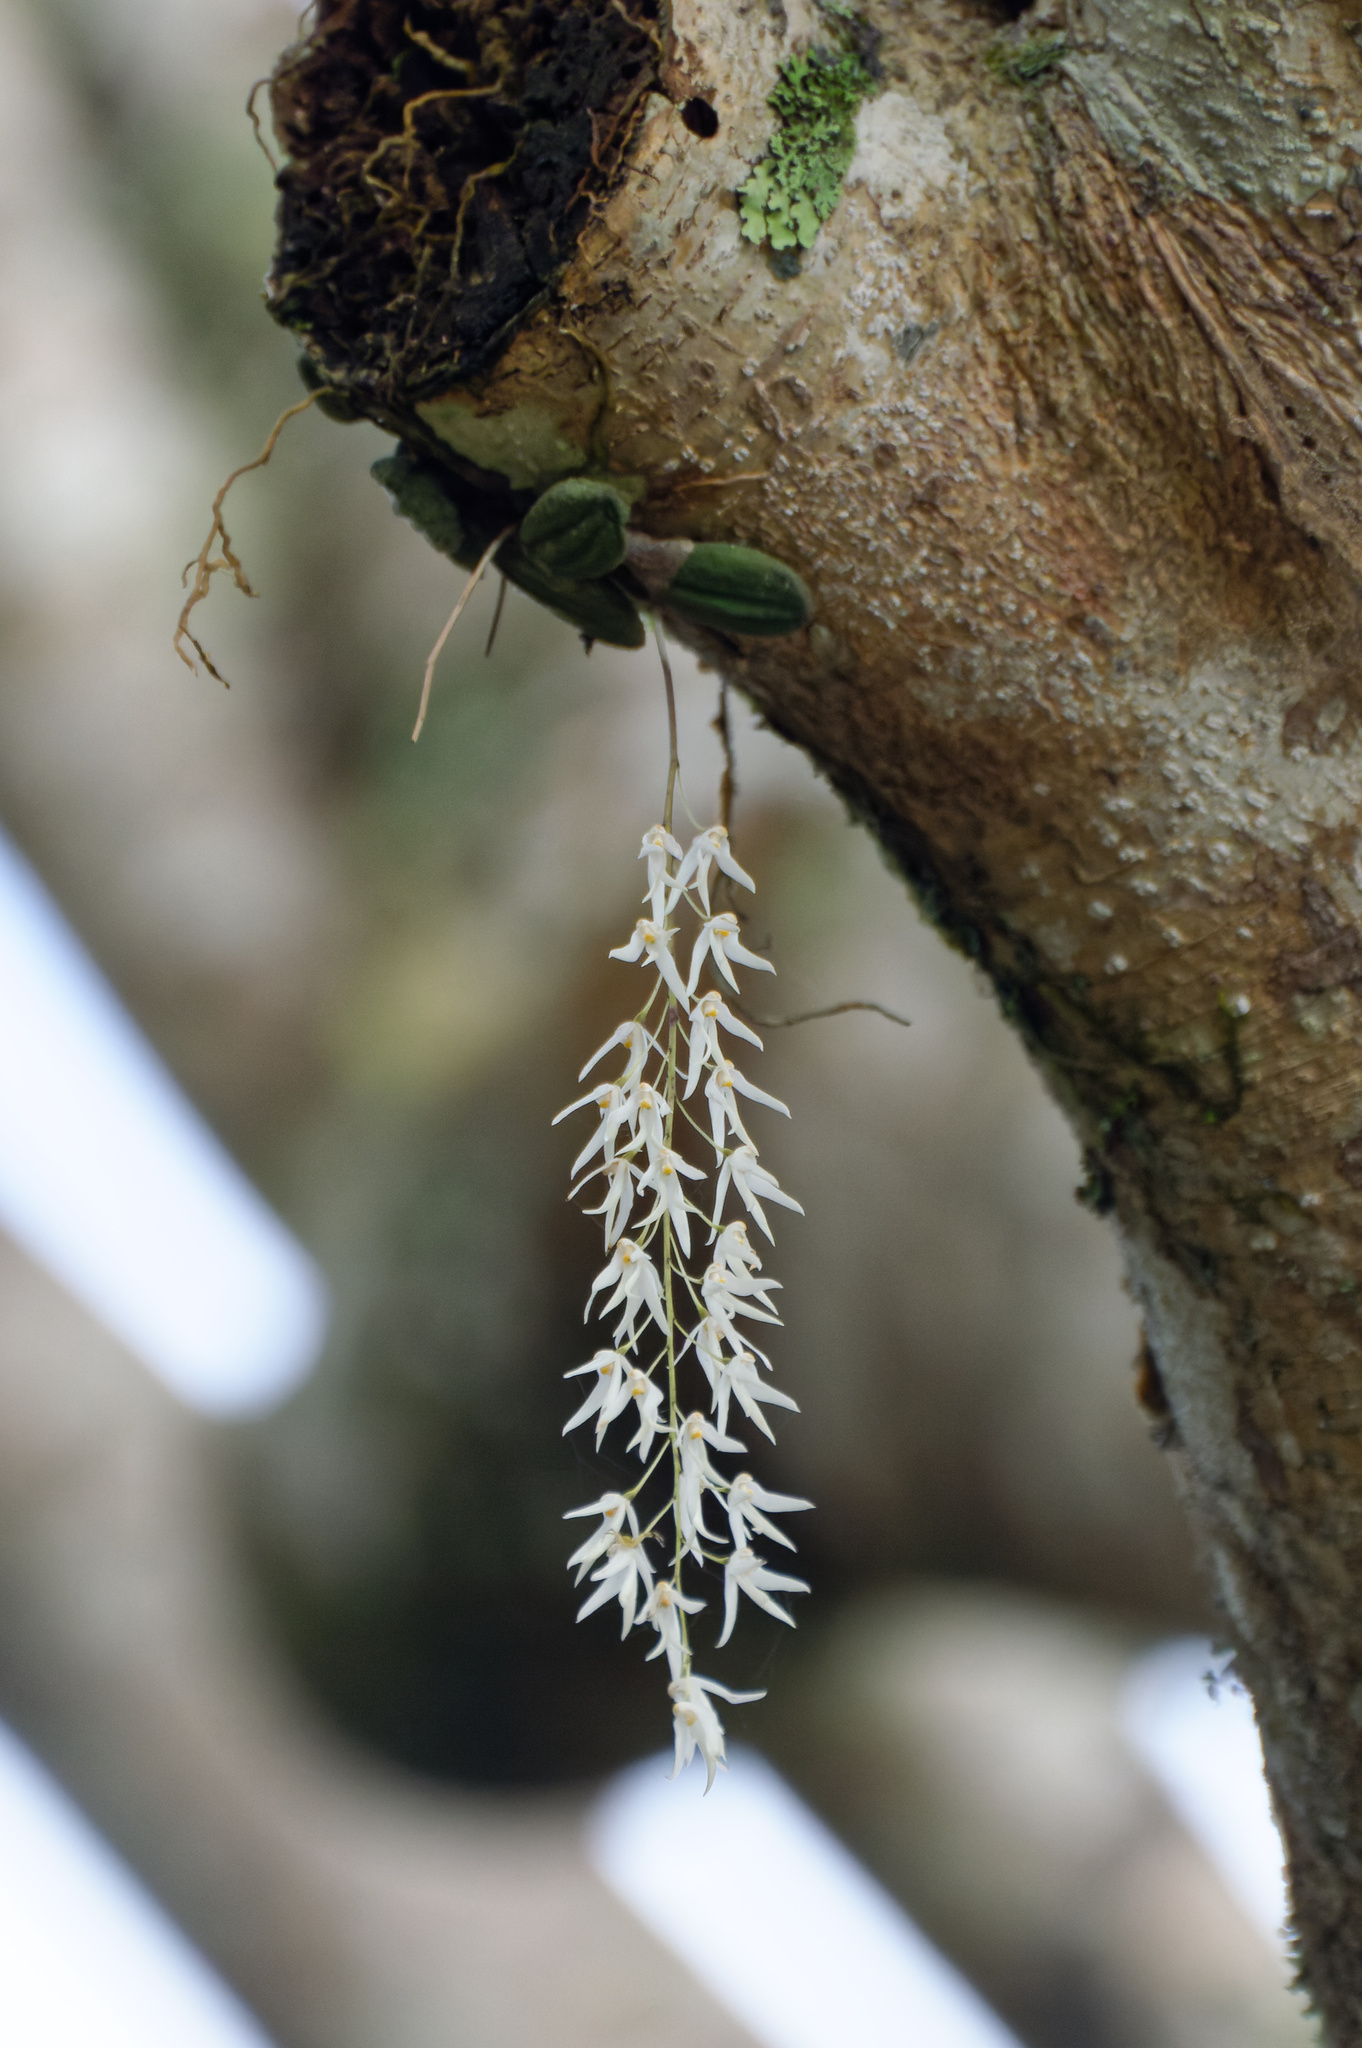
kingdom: Plantae
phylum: Tracheophyta
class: Liliopsida
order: Asparagales
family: Orchidaceae
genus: Dendrobium
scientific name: Dendrobium linguiforme
